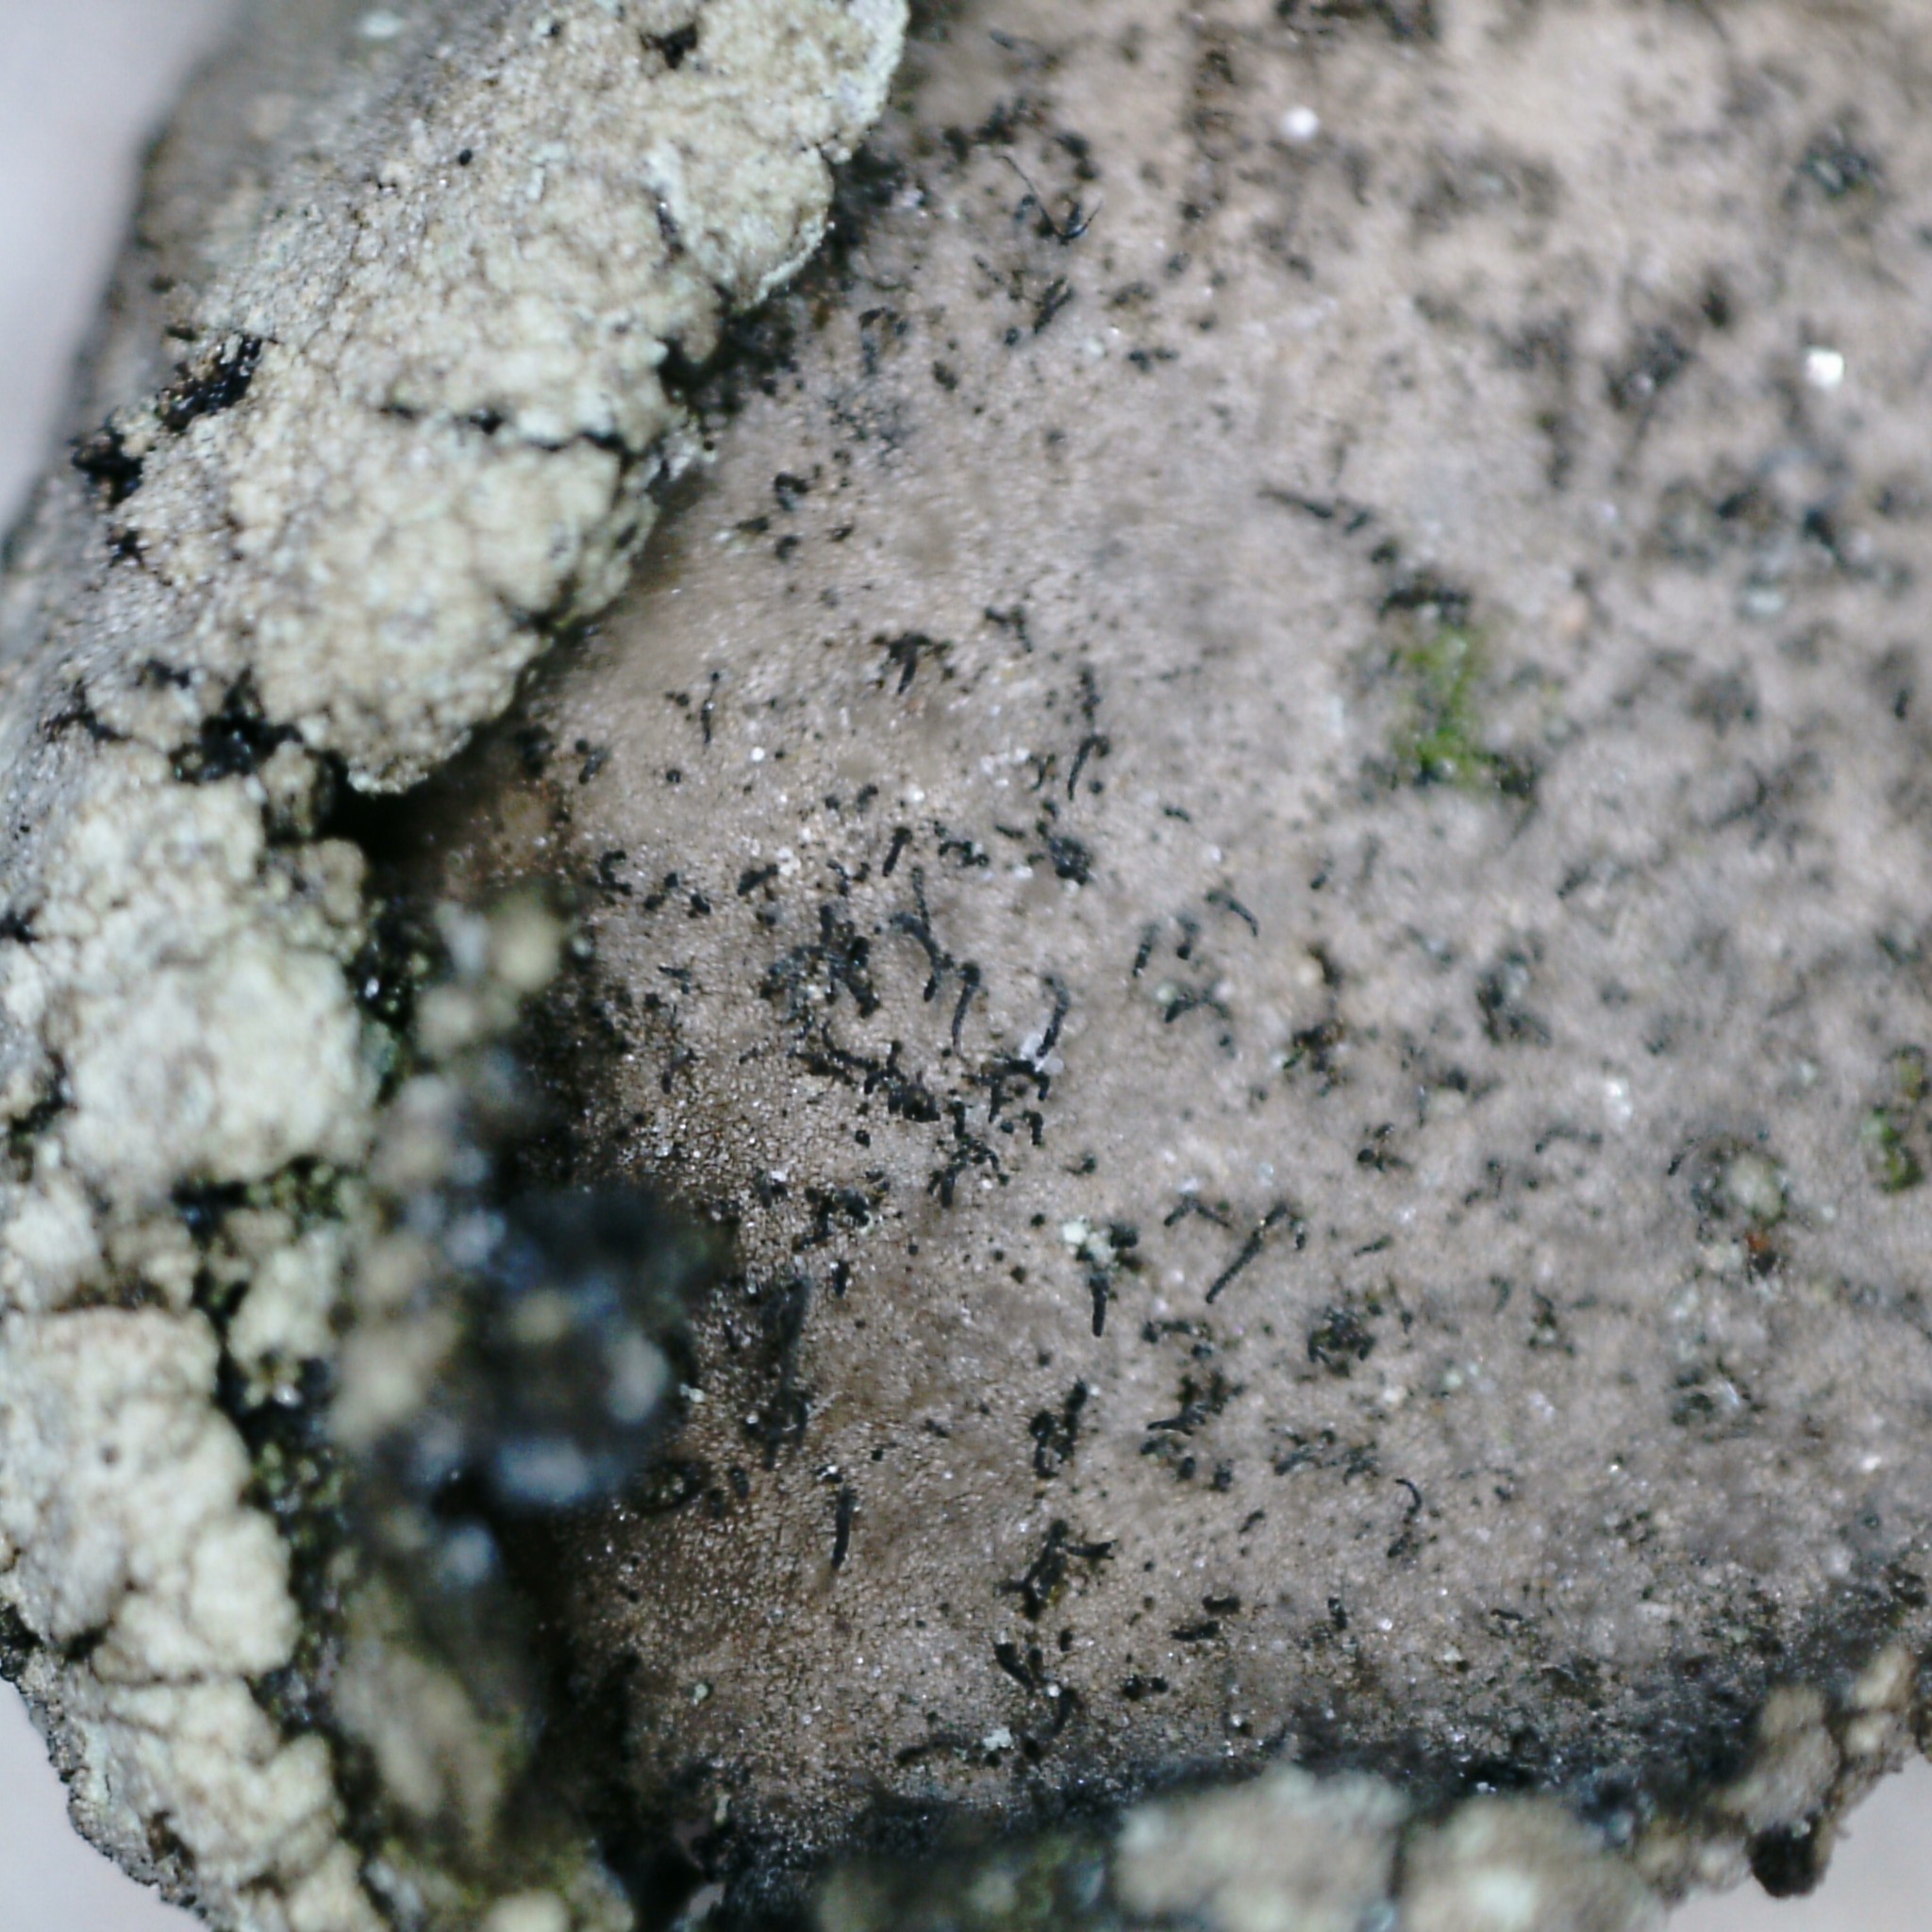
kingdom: Fungi
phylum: Ascomycota
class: Lecanoromycetes
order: Umbilicariales
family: Umbilicariaceae
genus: Umbilicaria
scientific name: Umbilicaria hirsuta
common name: Granulating rocktripe lichen
